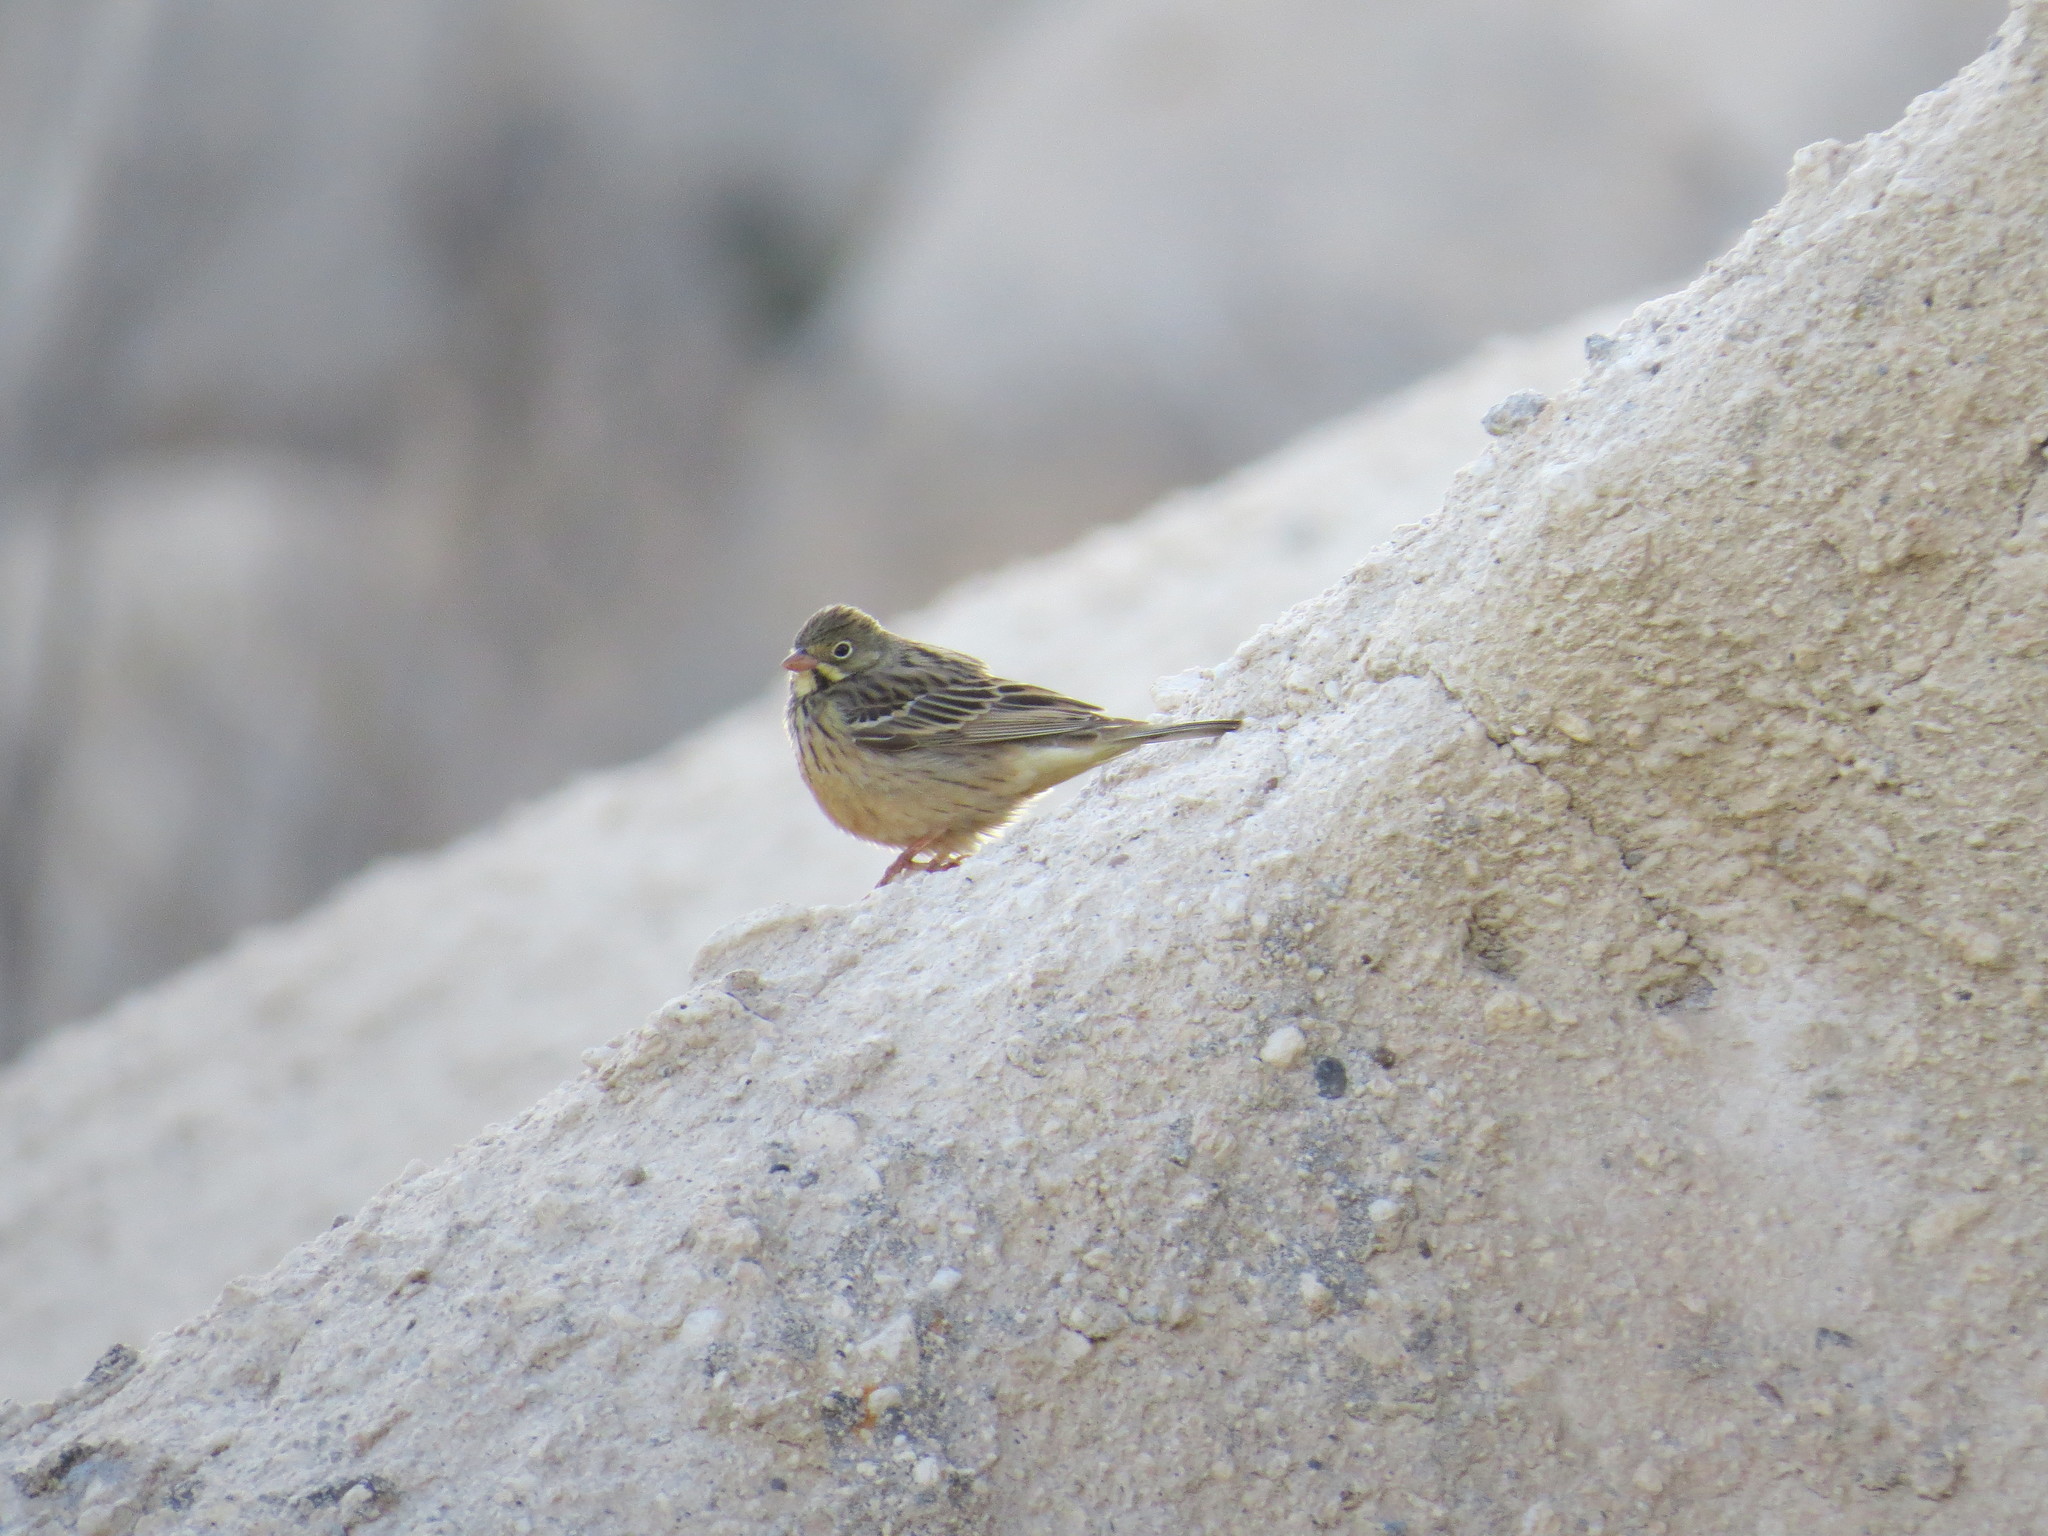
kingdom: Animalia
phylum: Chordata
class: Aves
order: Passeriformes
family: Emberizidae
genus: Emberiza
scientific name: Emberiza hortulana
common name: Ortolan bunting
